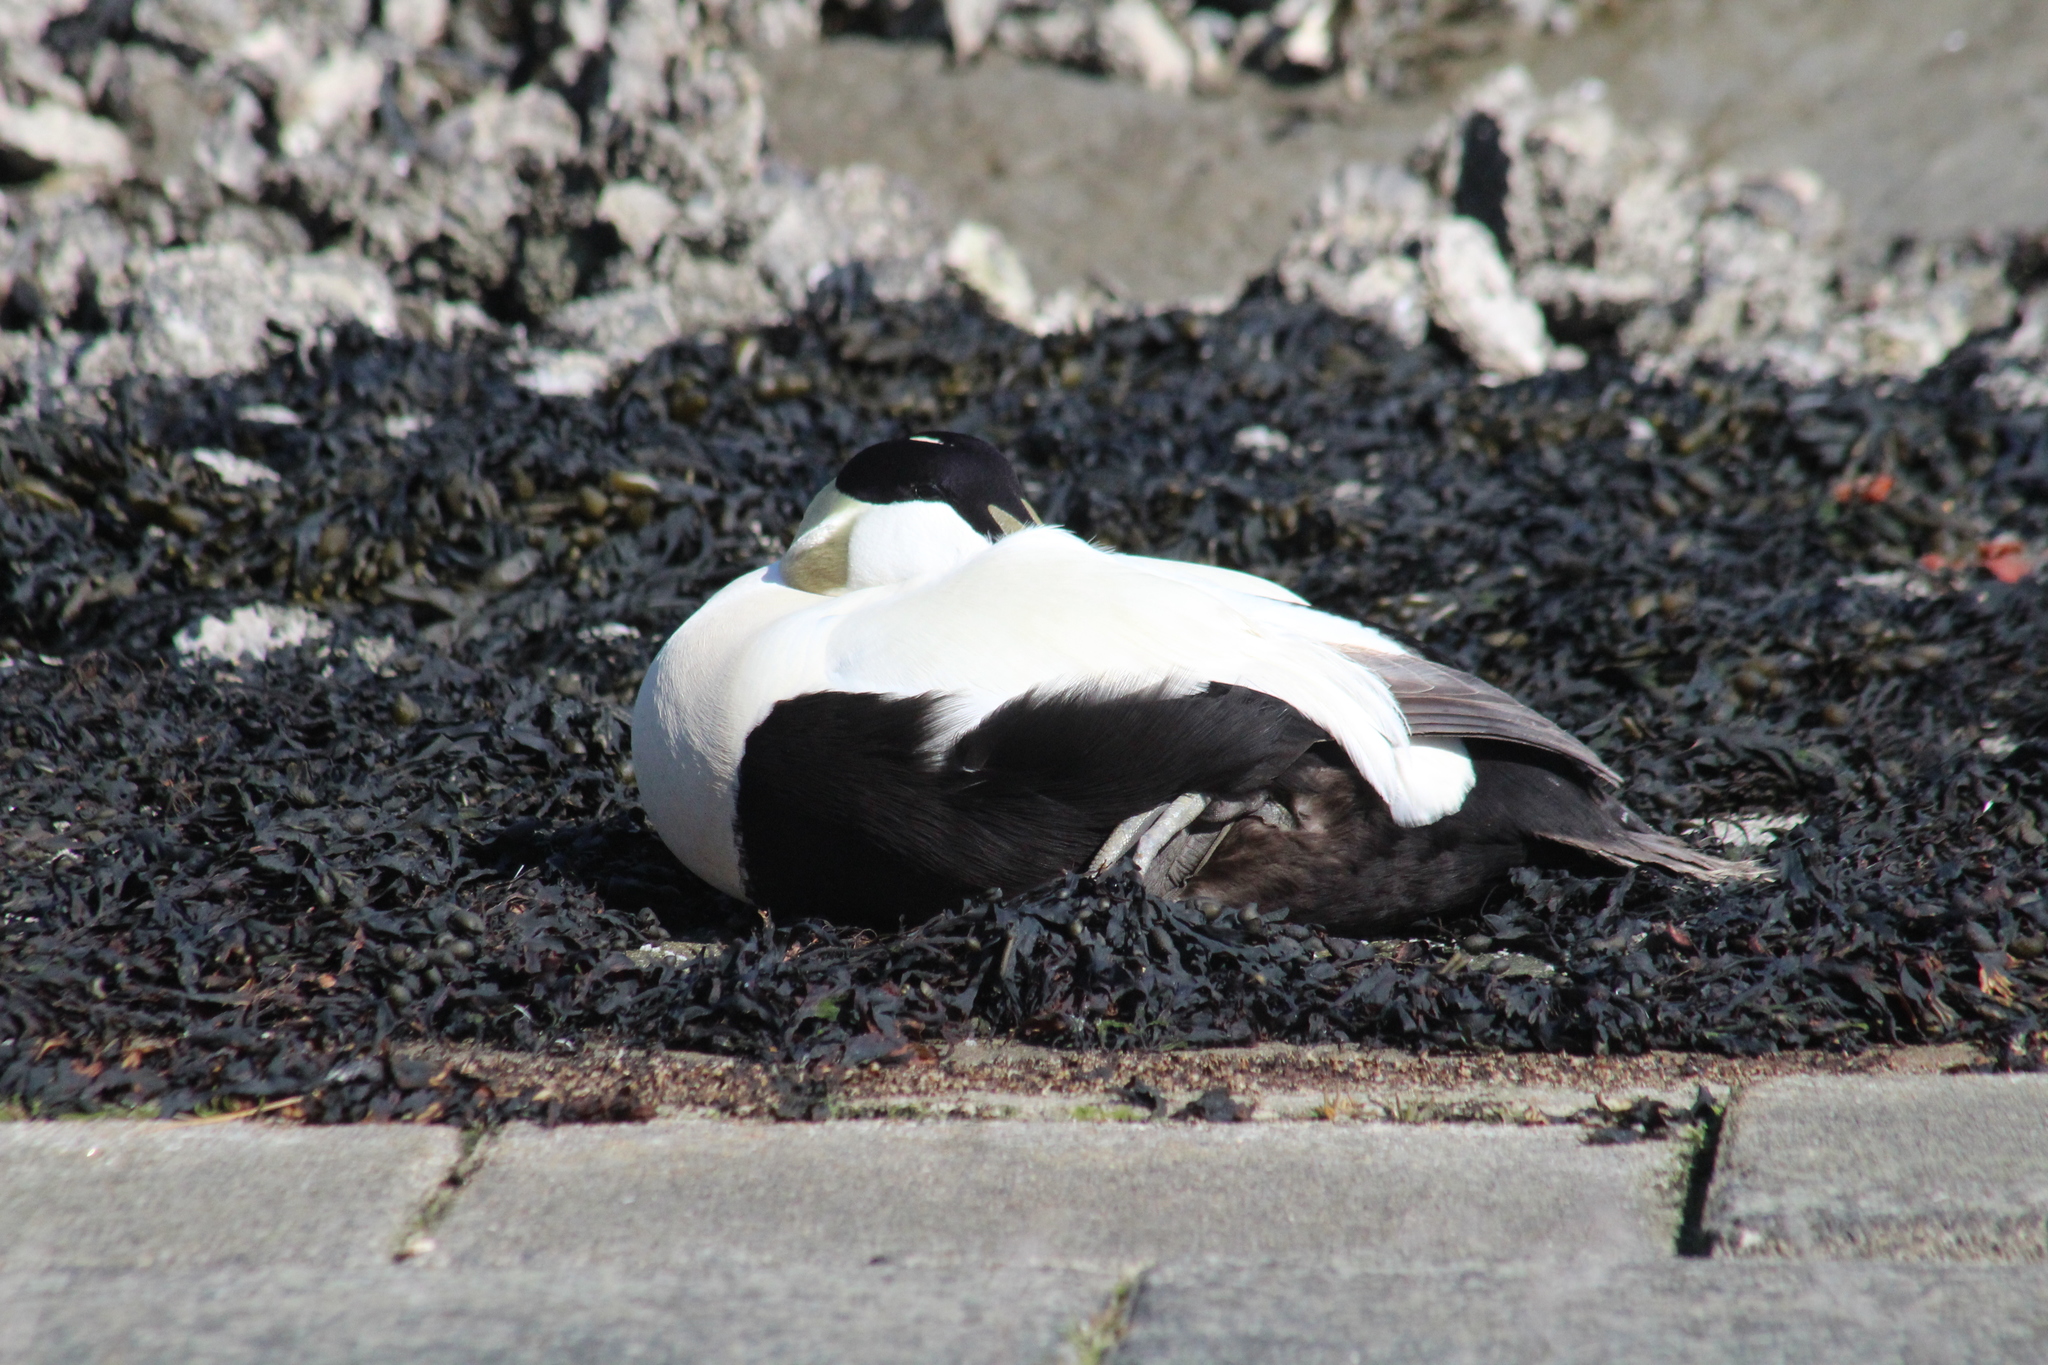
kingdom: Animalia
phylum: Chordata
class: Aves
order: Anseriformes
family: Anatidae
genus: Somateria
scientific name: Somateria mollissima
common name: Common eider
